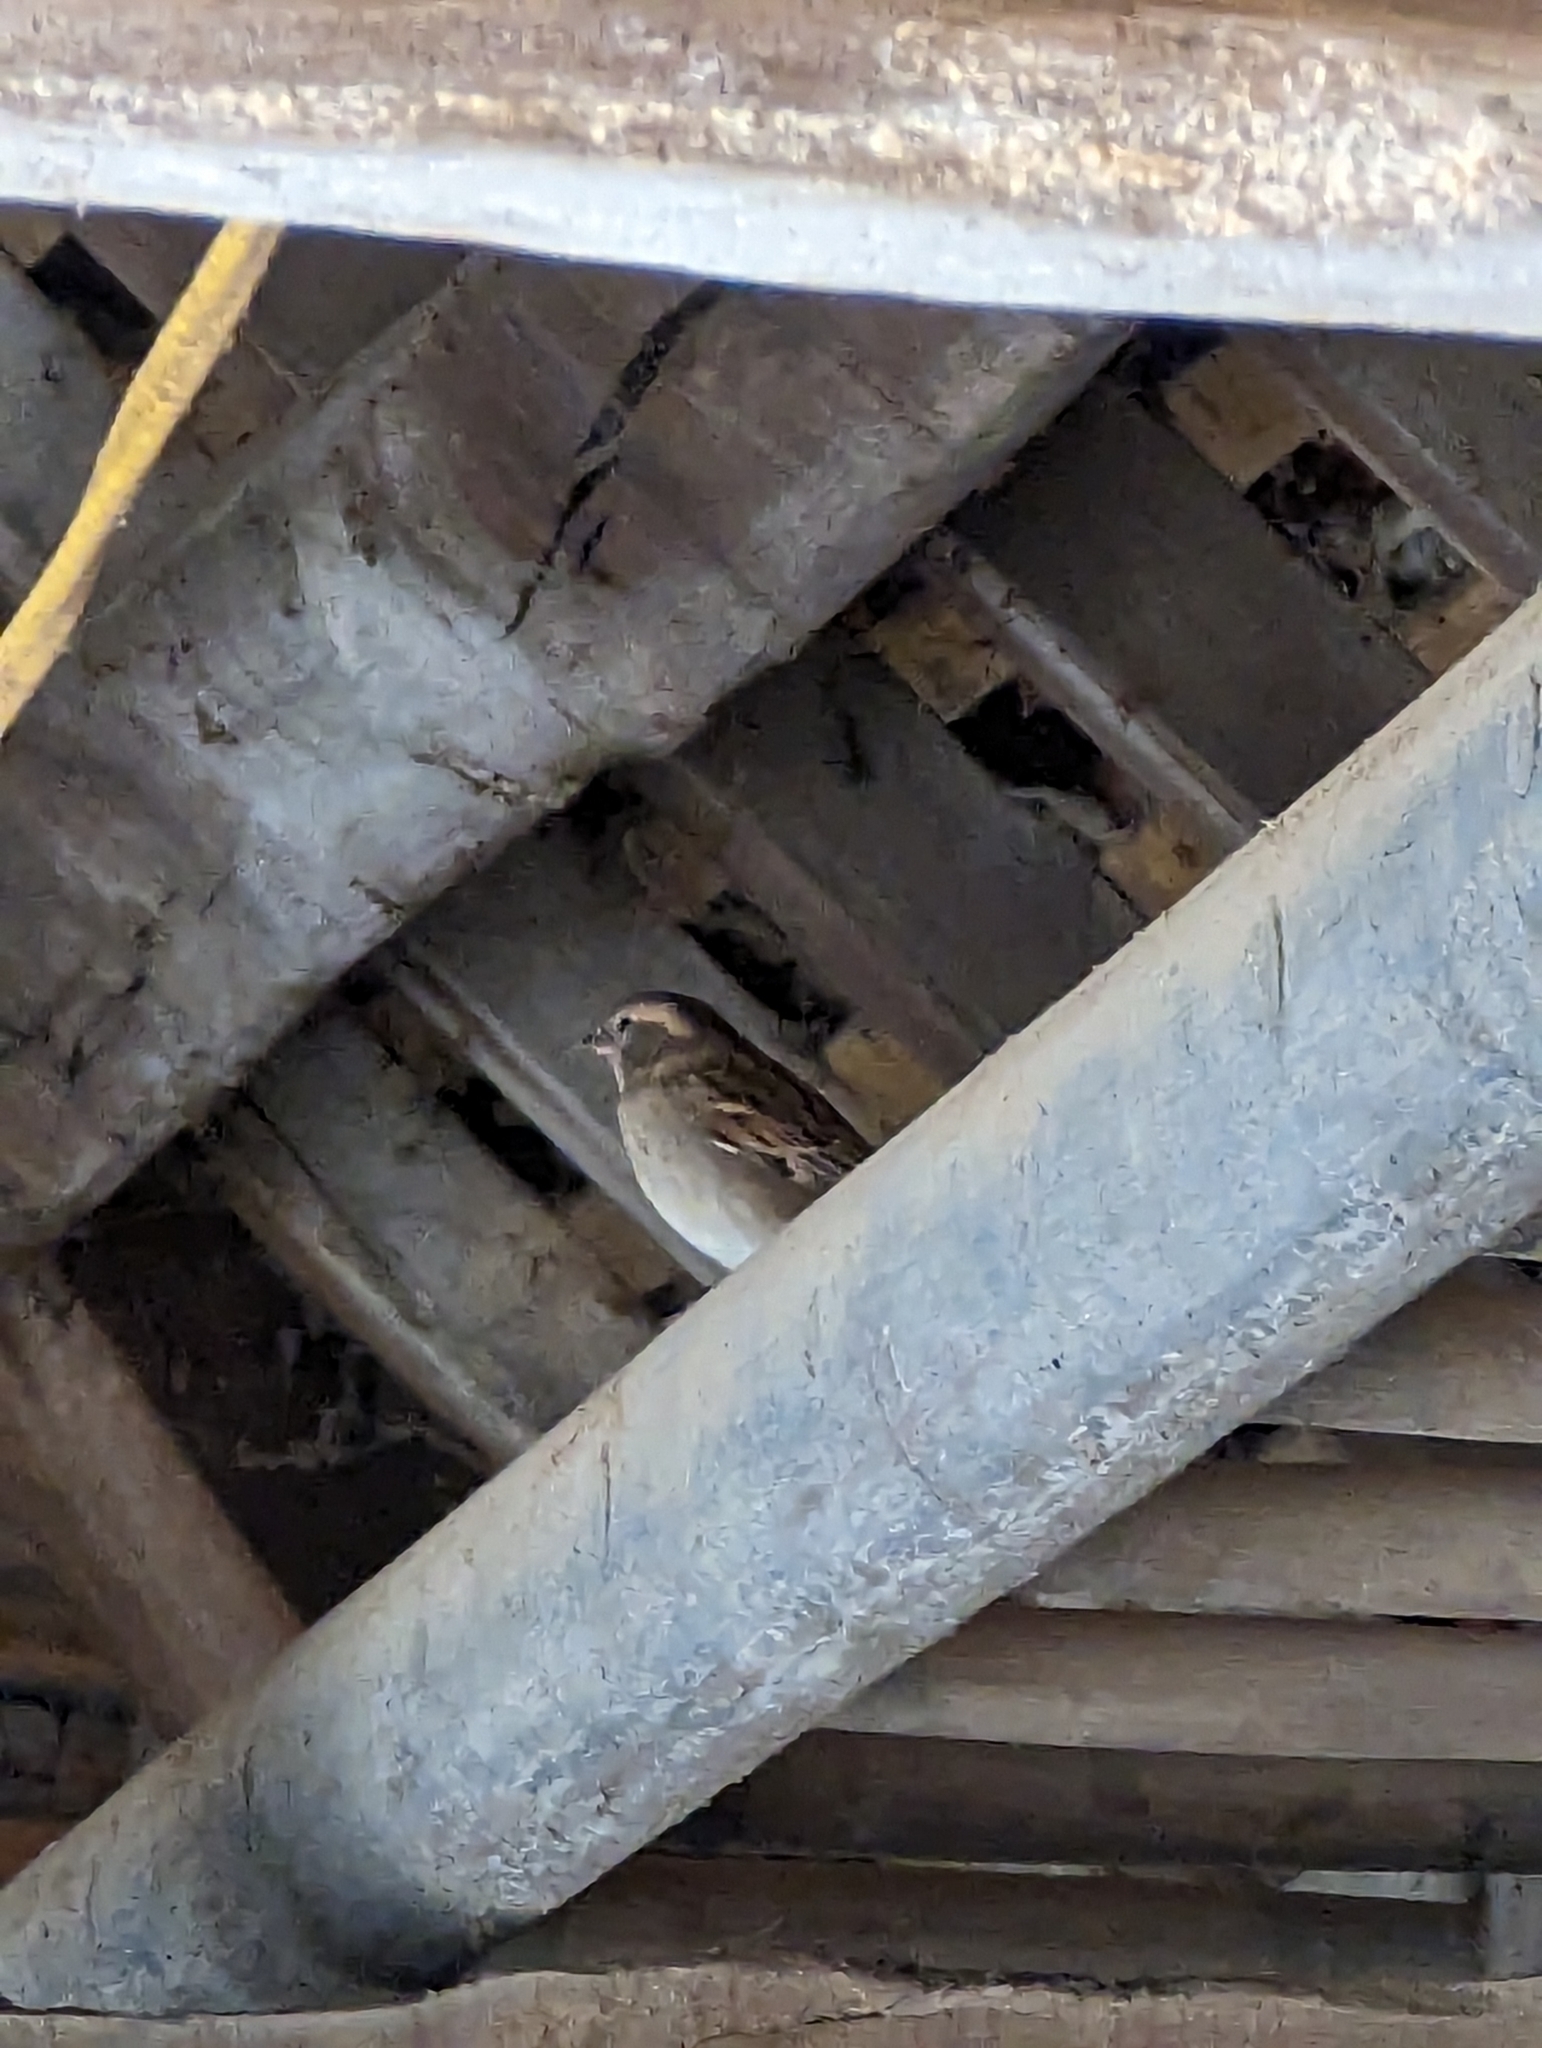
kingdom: Animalia
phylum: Chordata
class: Aves
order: Passeriformes
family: Passeridae
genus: Passer
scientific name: Passer domesticus
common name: House sparrow
